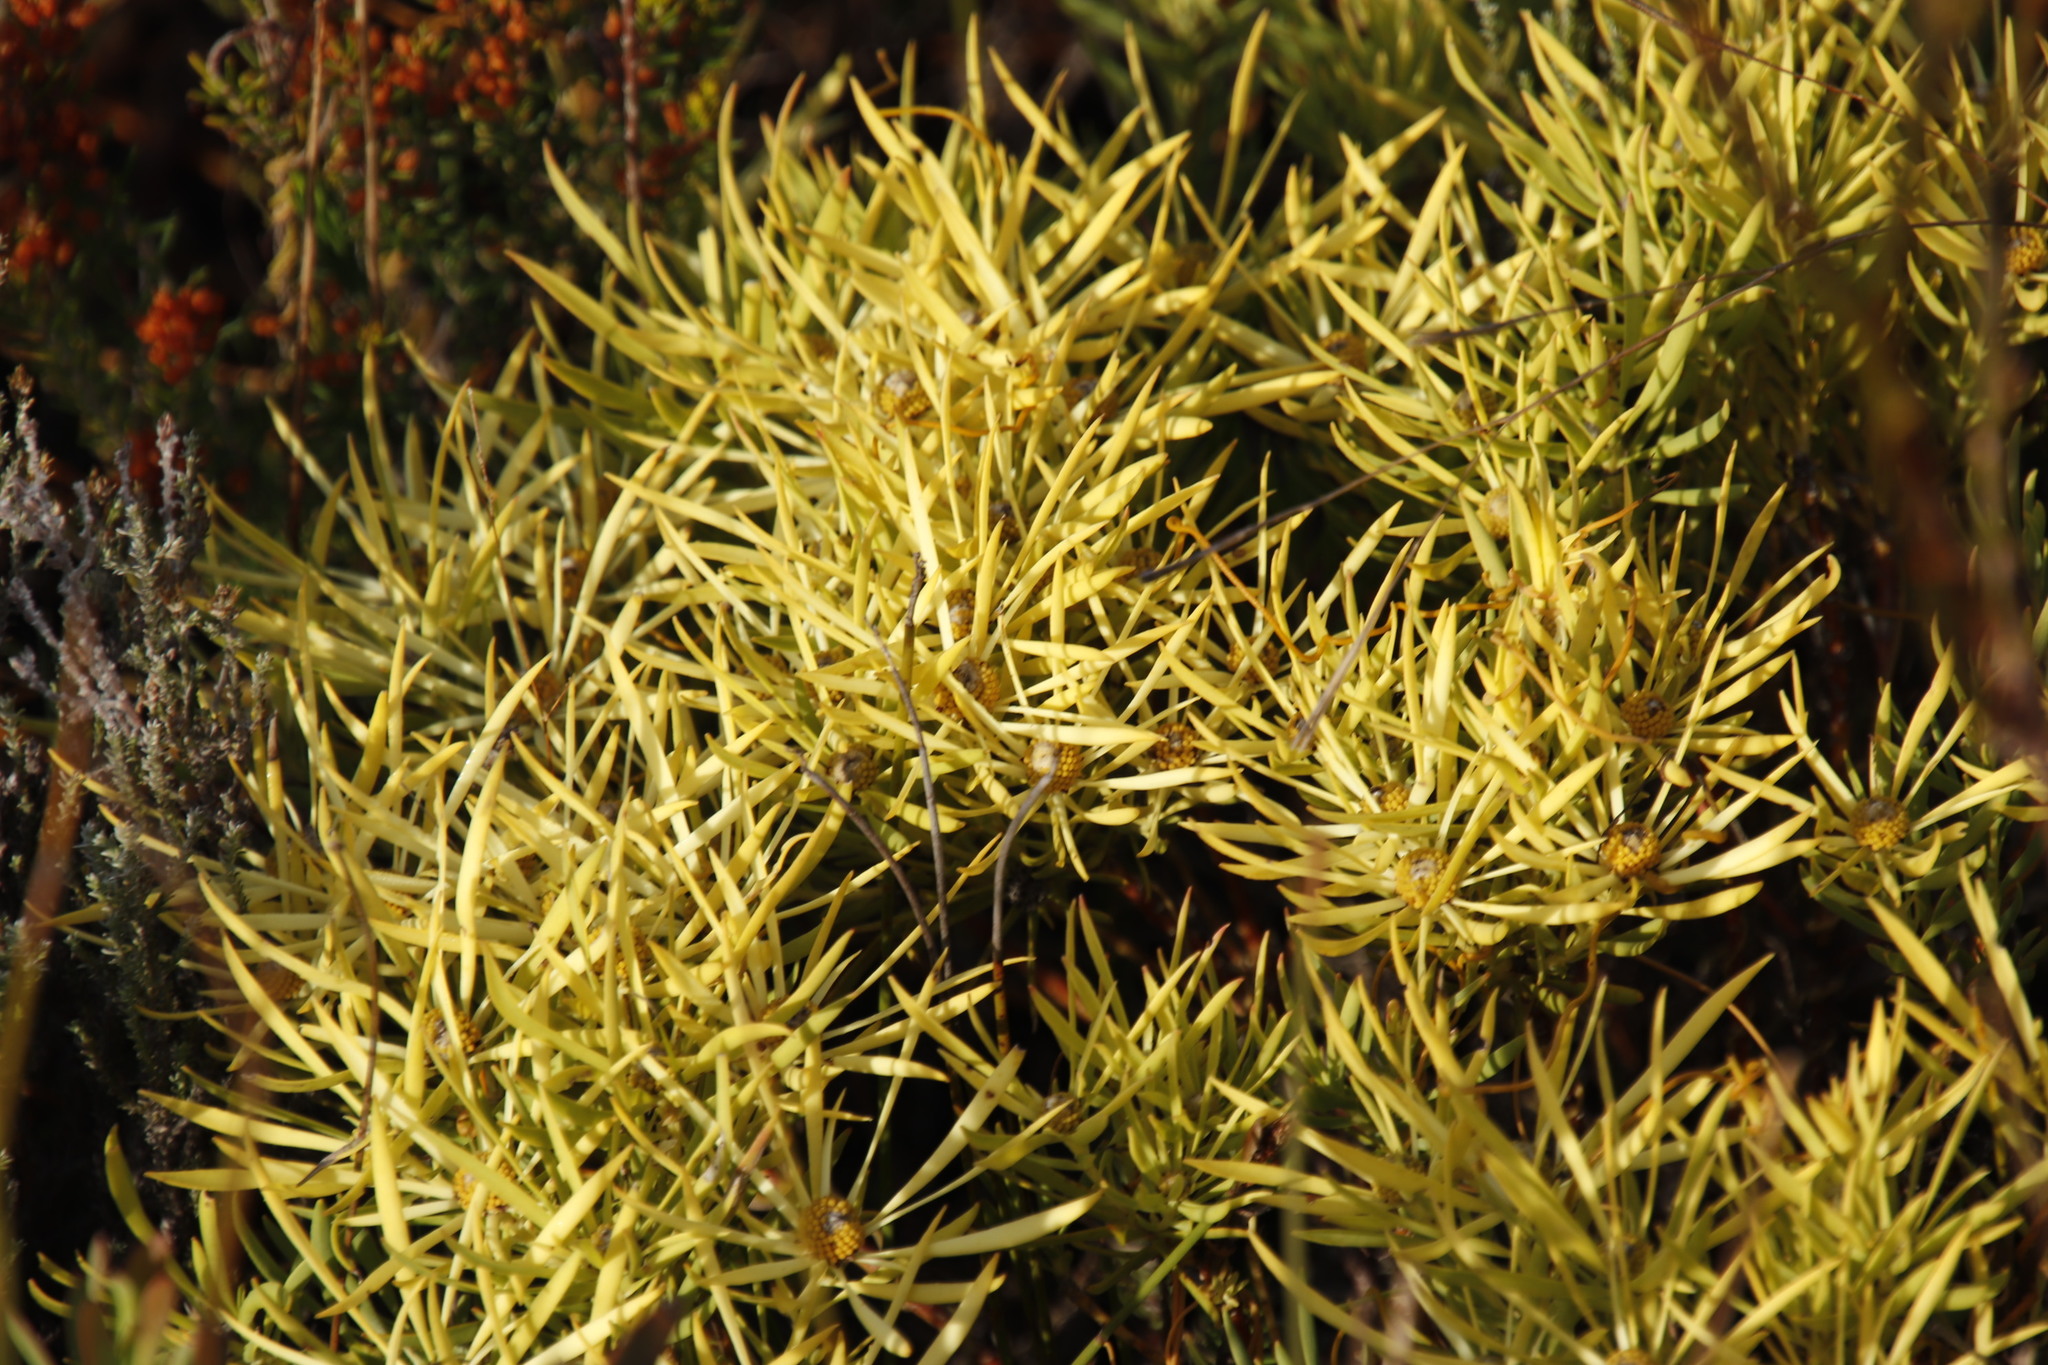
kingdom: Plantae
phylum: Tracheophyta
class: Magnoliopsida
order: Proteales
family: Proteaceae
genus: Leucadendron
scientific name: Leucadendron salignum
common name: Common sunshine conebush
